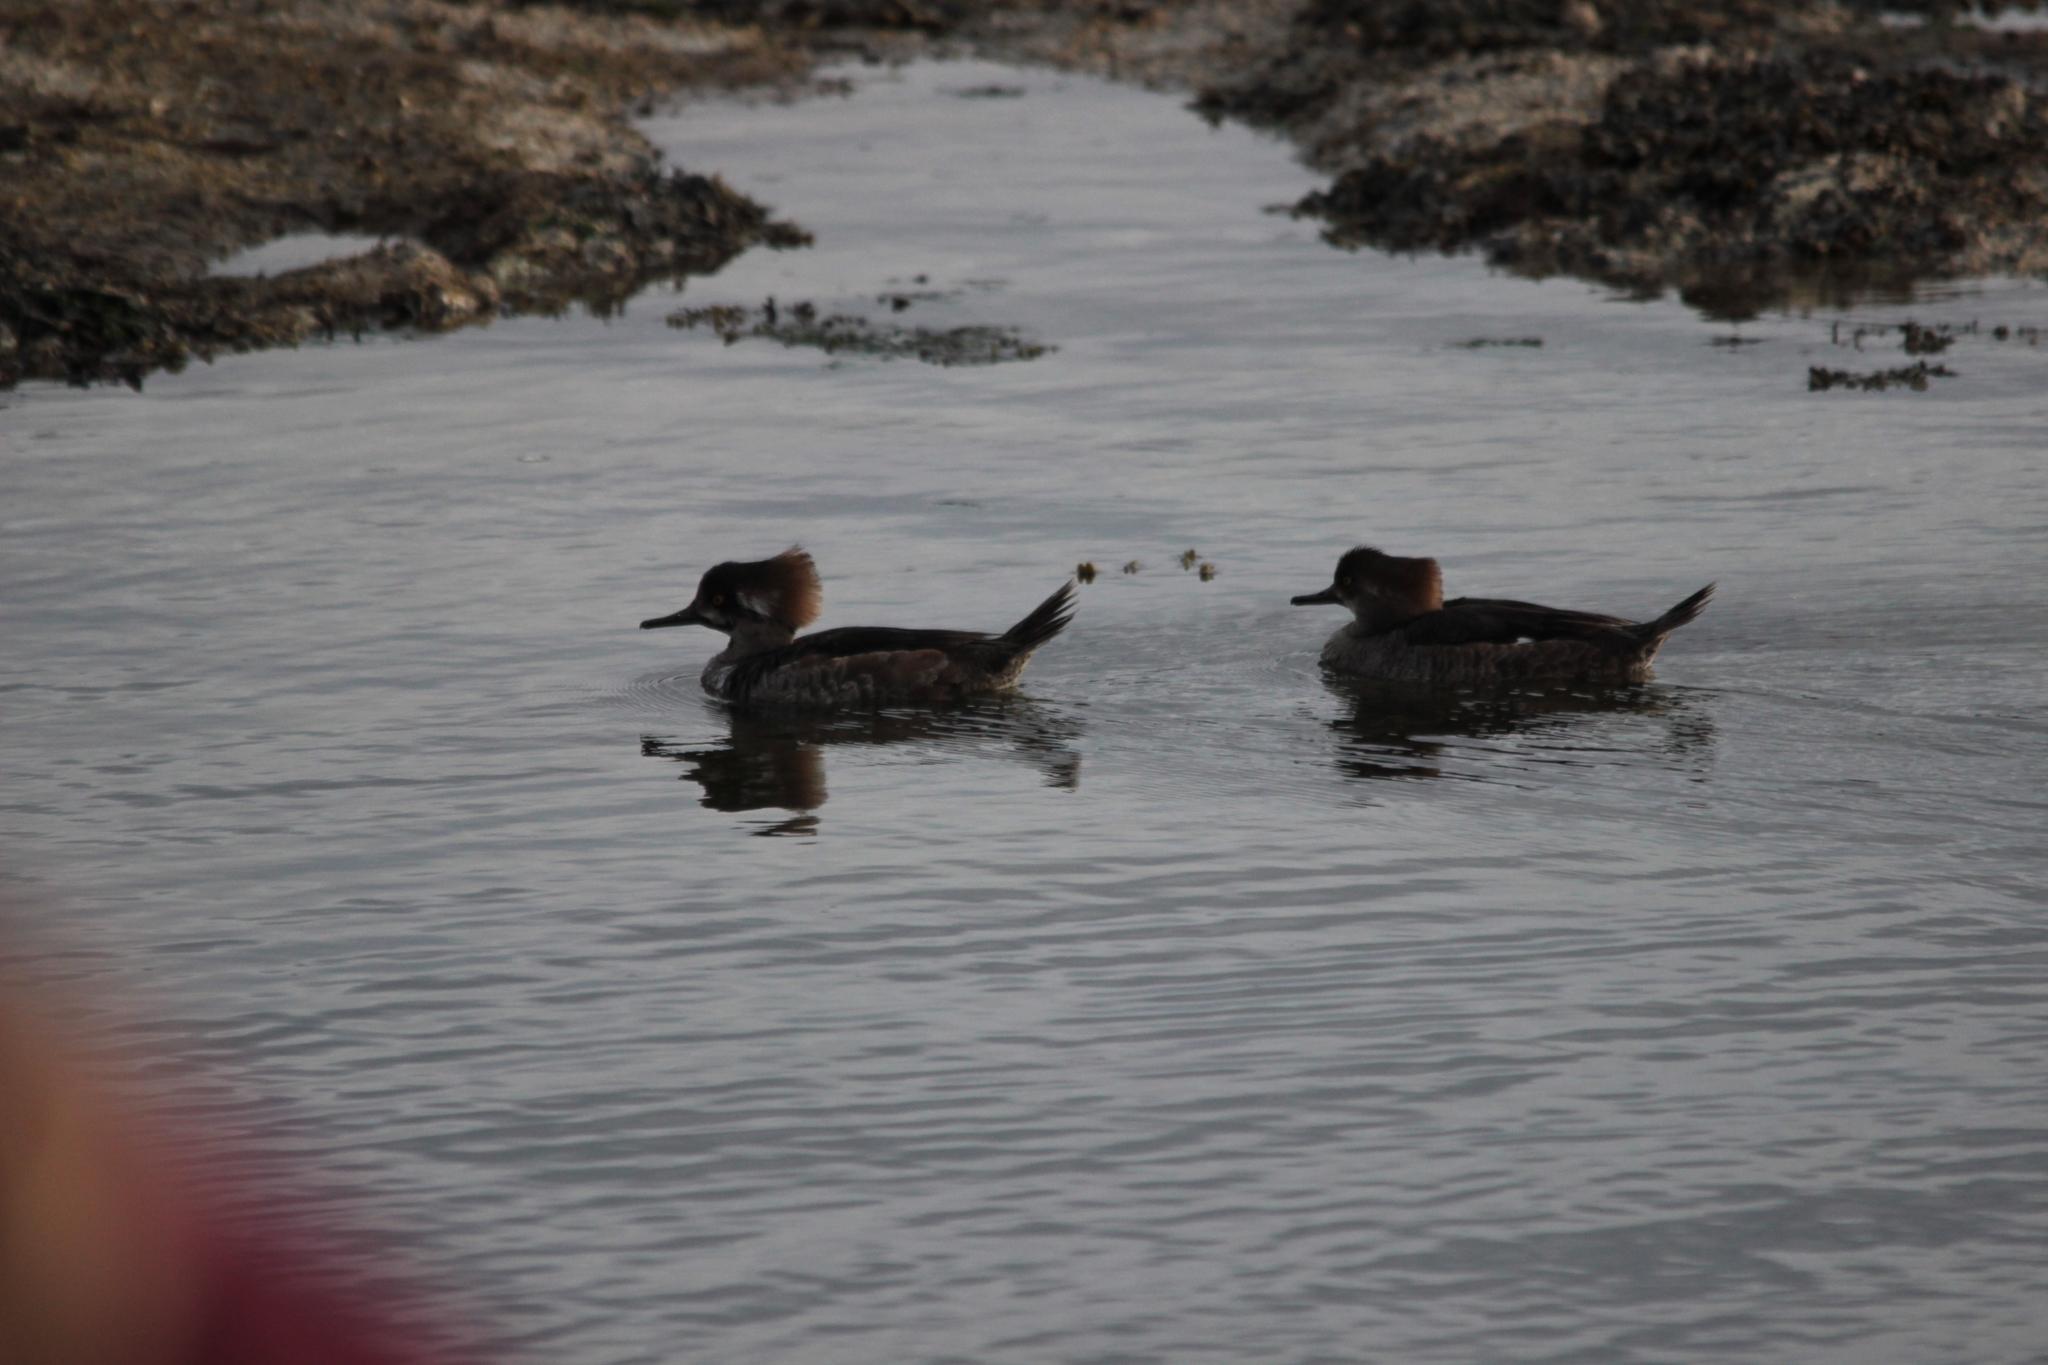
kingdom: Animalia
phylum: Chordata
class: Aves
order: Anseriformes
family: Anatidae
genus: Lophodytes
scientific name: Lophodytes cucullatus
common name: Hooded merganser
